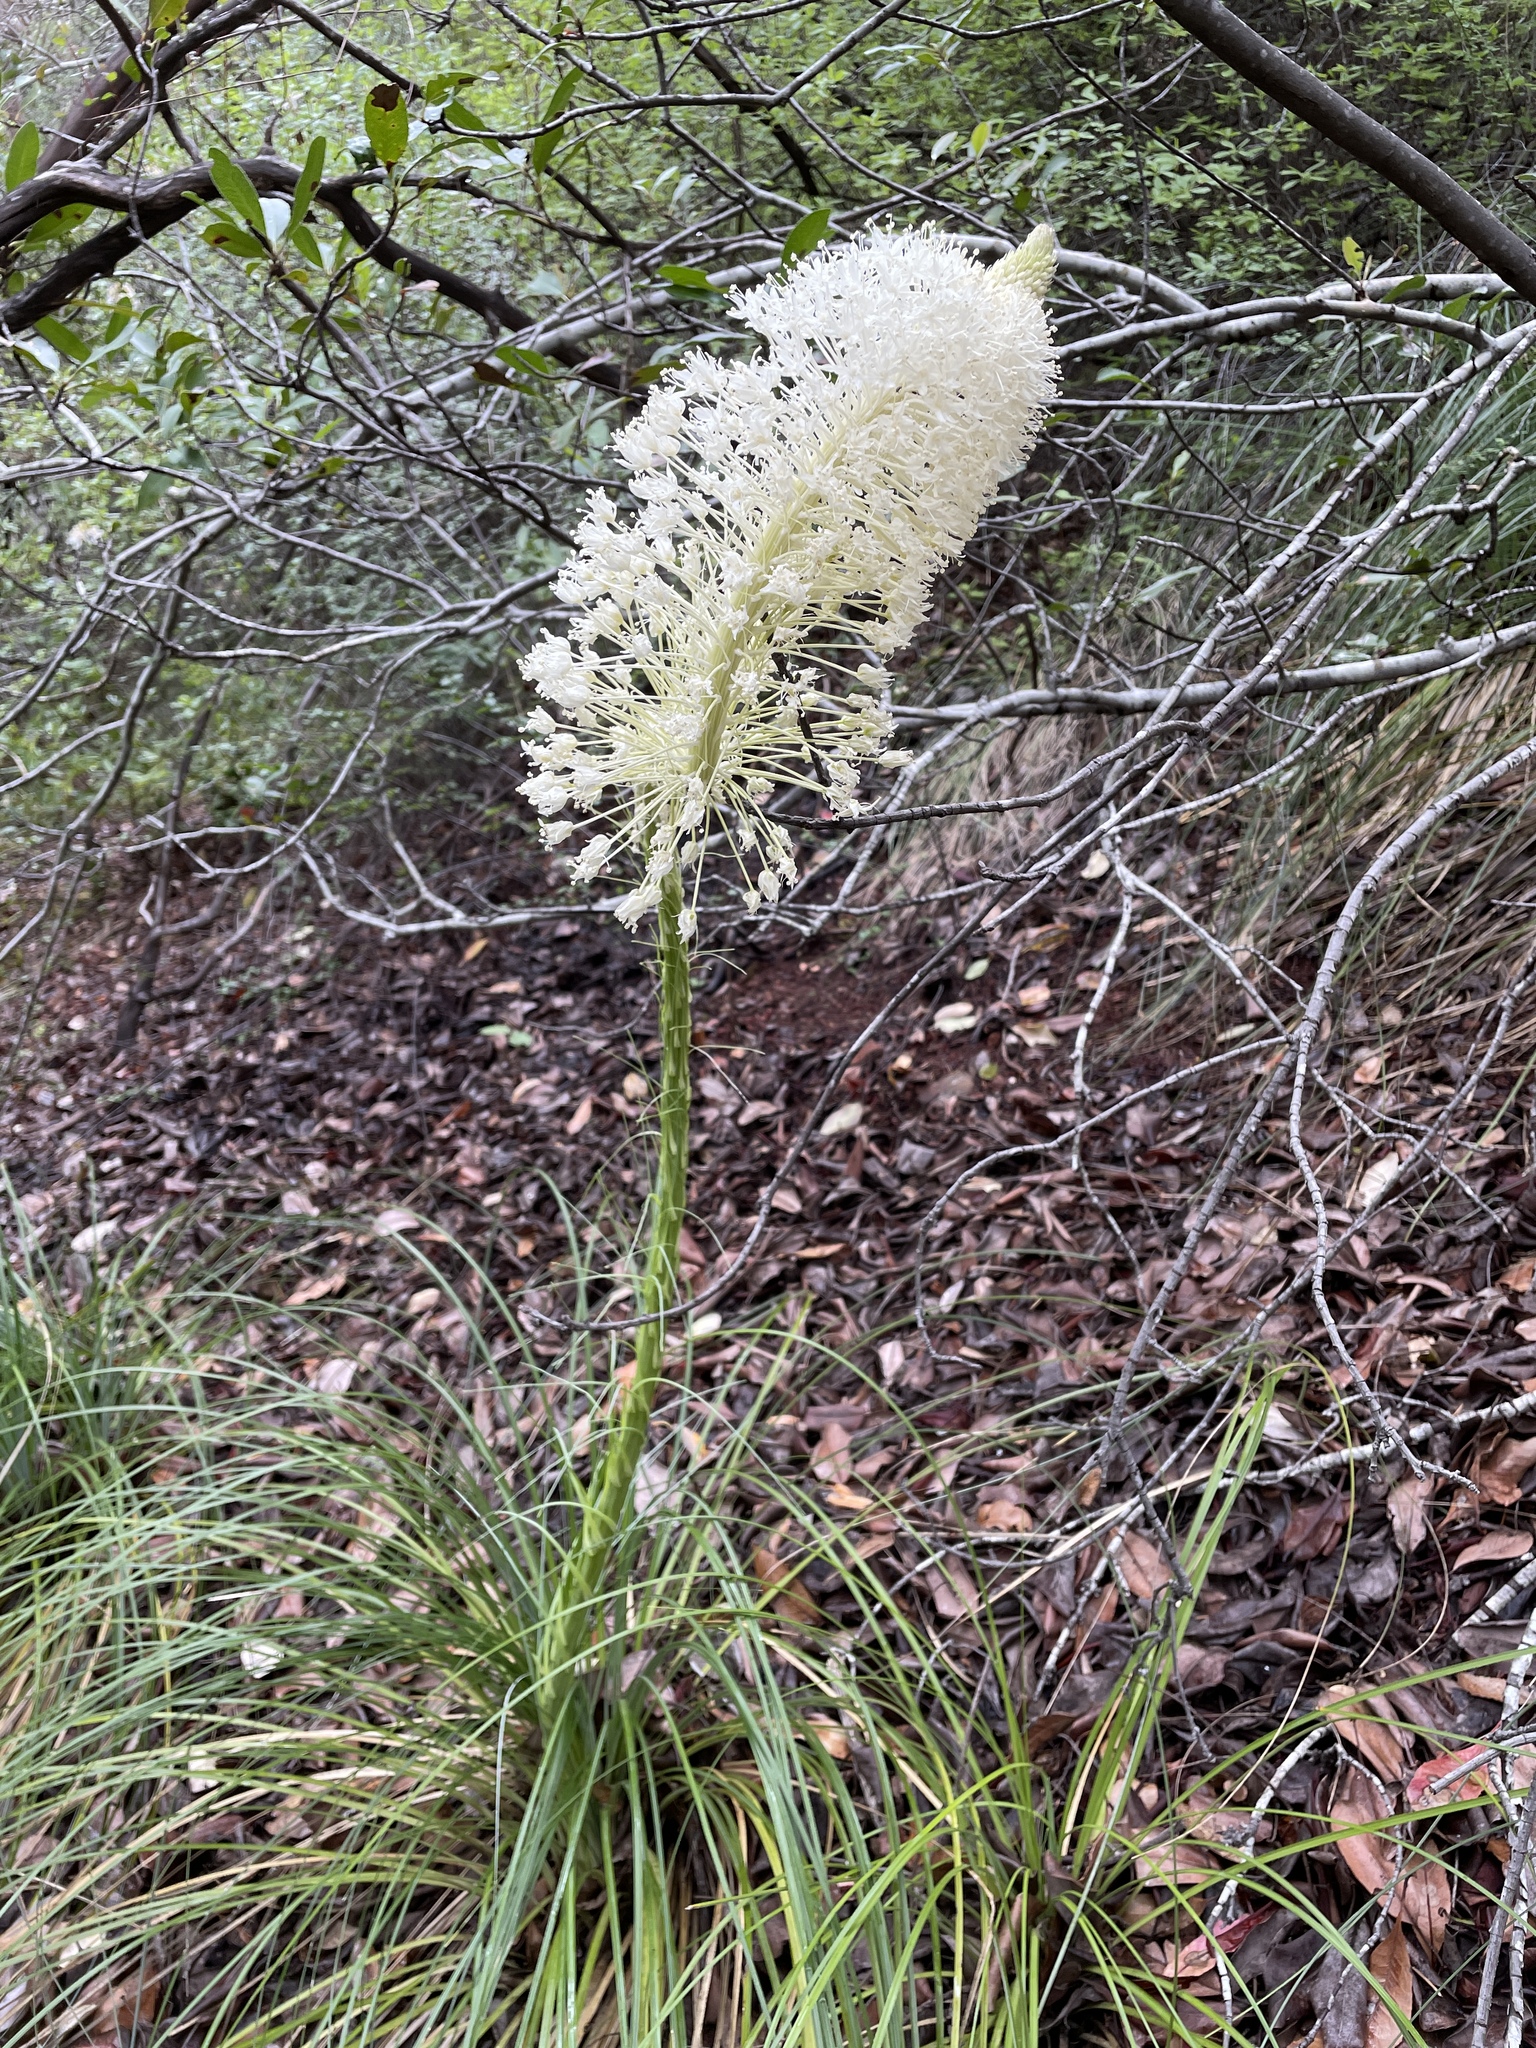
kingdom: Plantae
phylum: Tracheophyta
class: Liliopsida
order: Liliales
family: Melanthiaceae
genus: Xerophyllum
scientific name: Xerophyllum tenax
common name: Bear-grass
